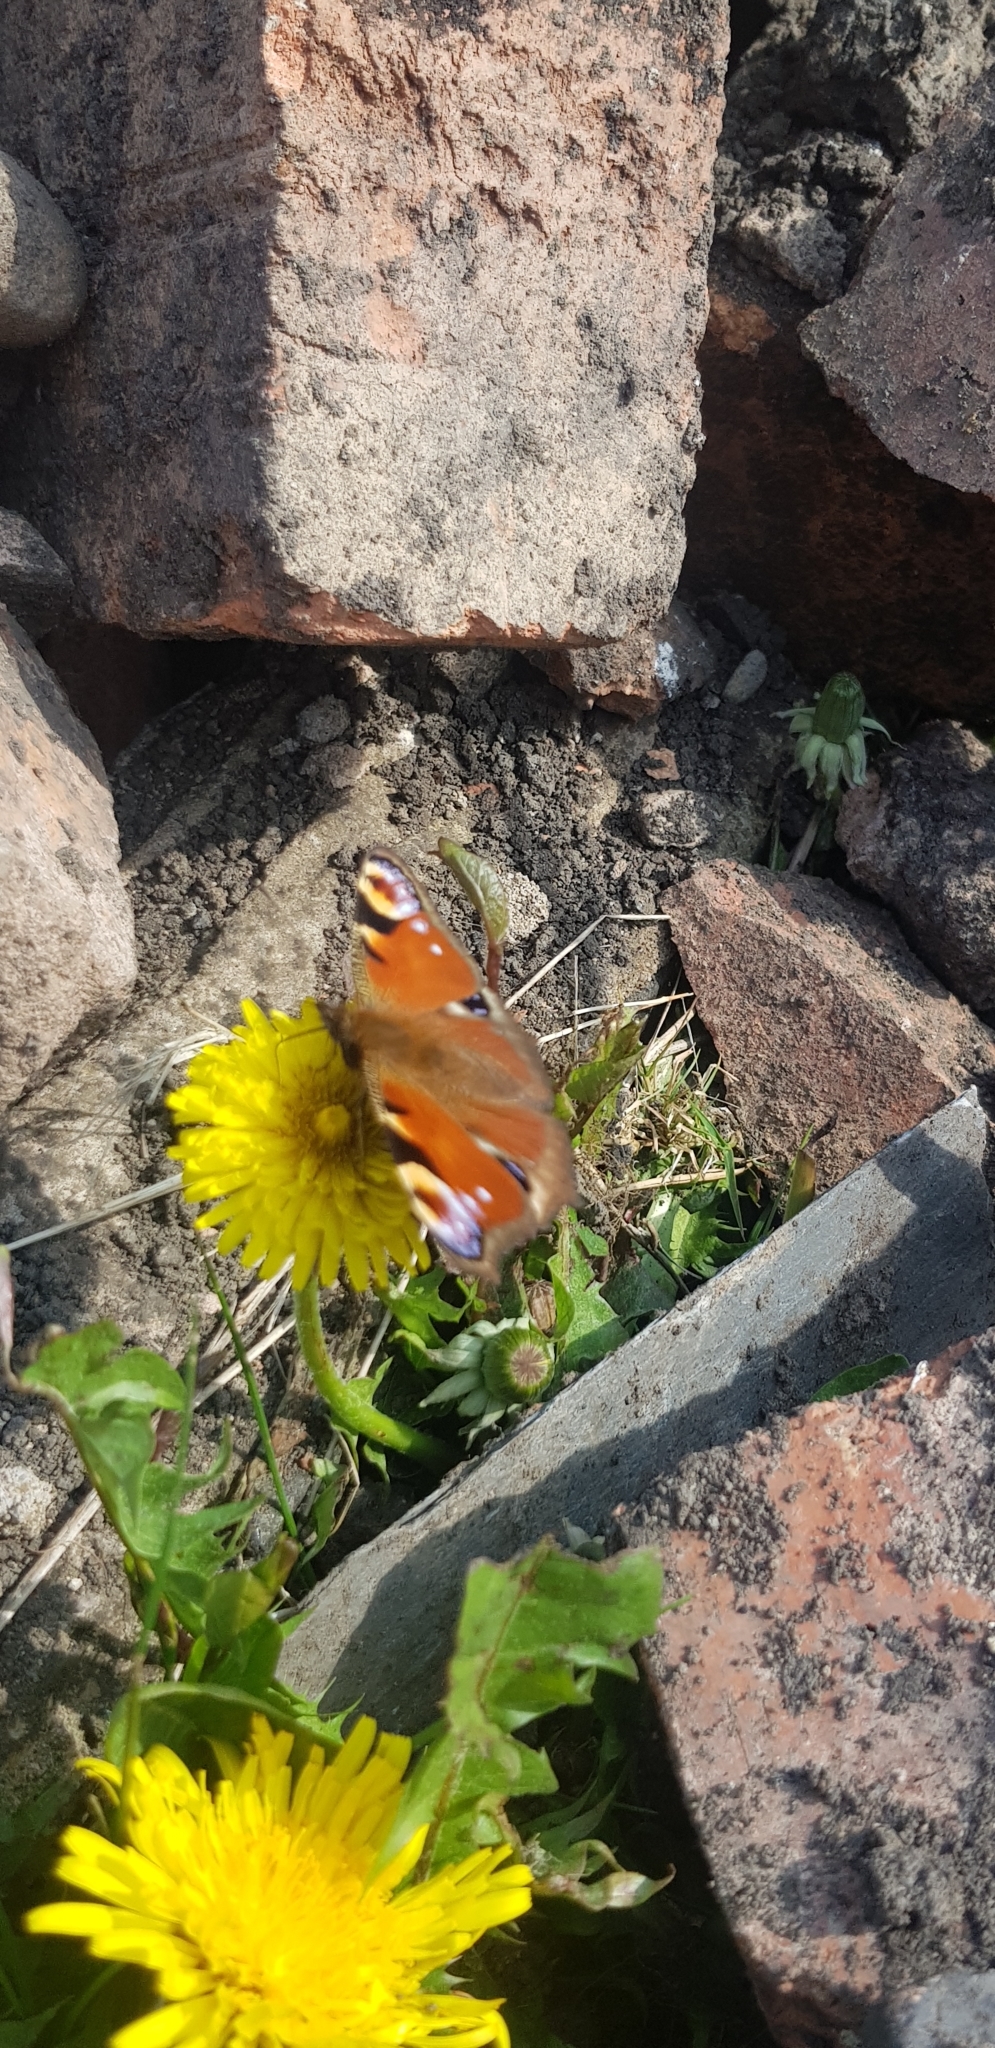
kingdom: Animalia
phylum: Arthropoda
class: Insecta
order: Lepidoptera
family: Nymphalidae
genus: Aglais
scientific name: Aglais io
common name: Peacock
